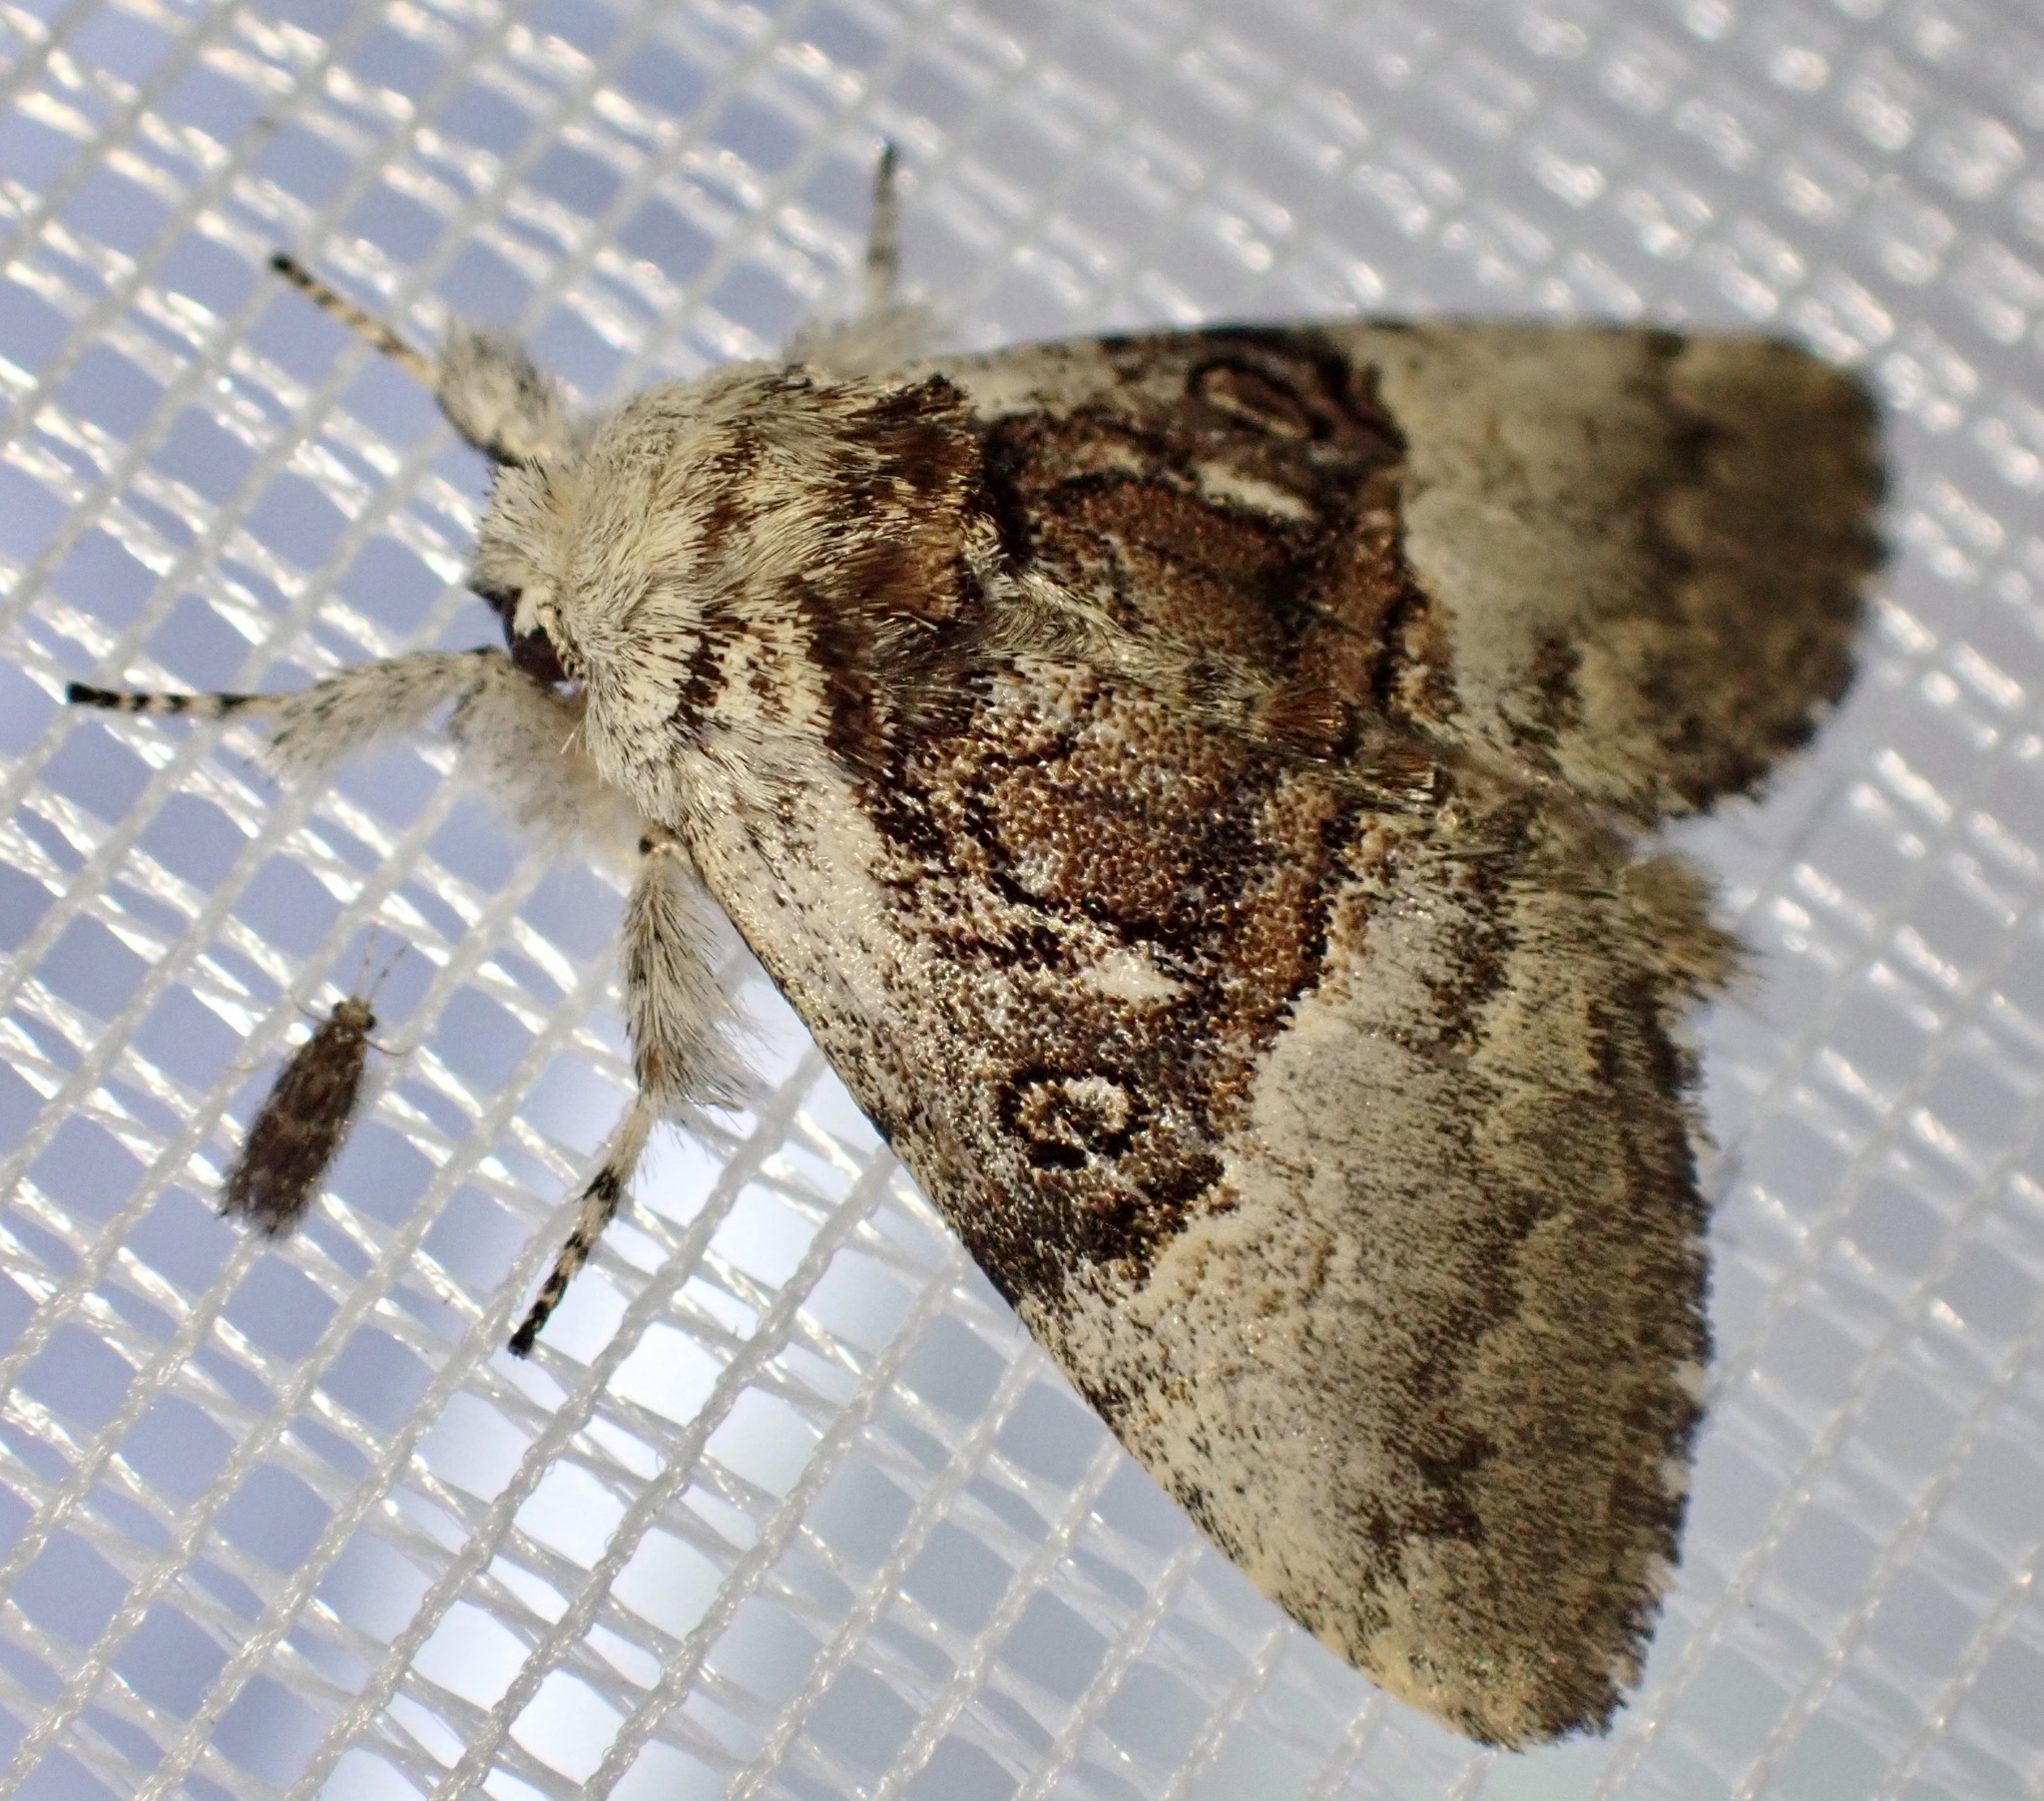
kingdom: Animalia
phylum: Arthropoda
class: Insecta
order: Lepidoptera
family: Noctuidae
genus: Colocasia
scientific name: Colocasia coryli
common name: Nut-tree tussock
